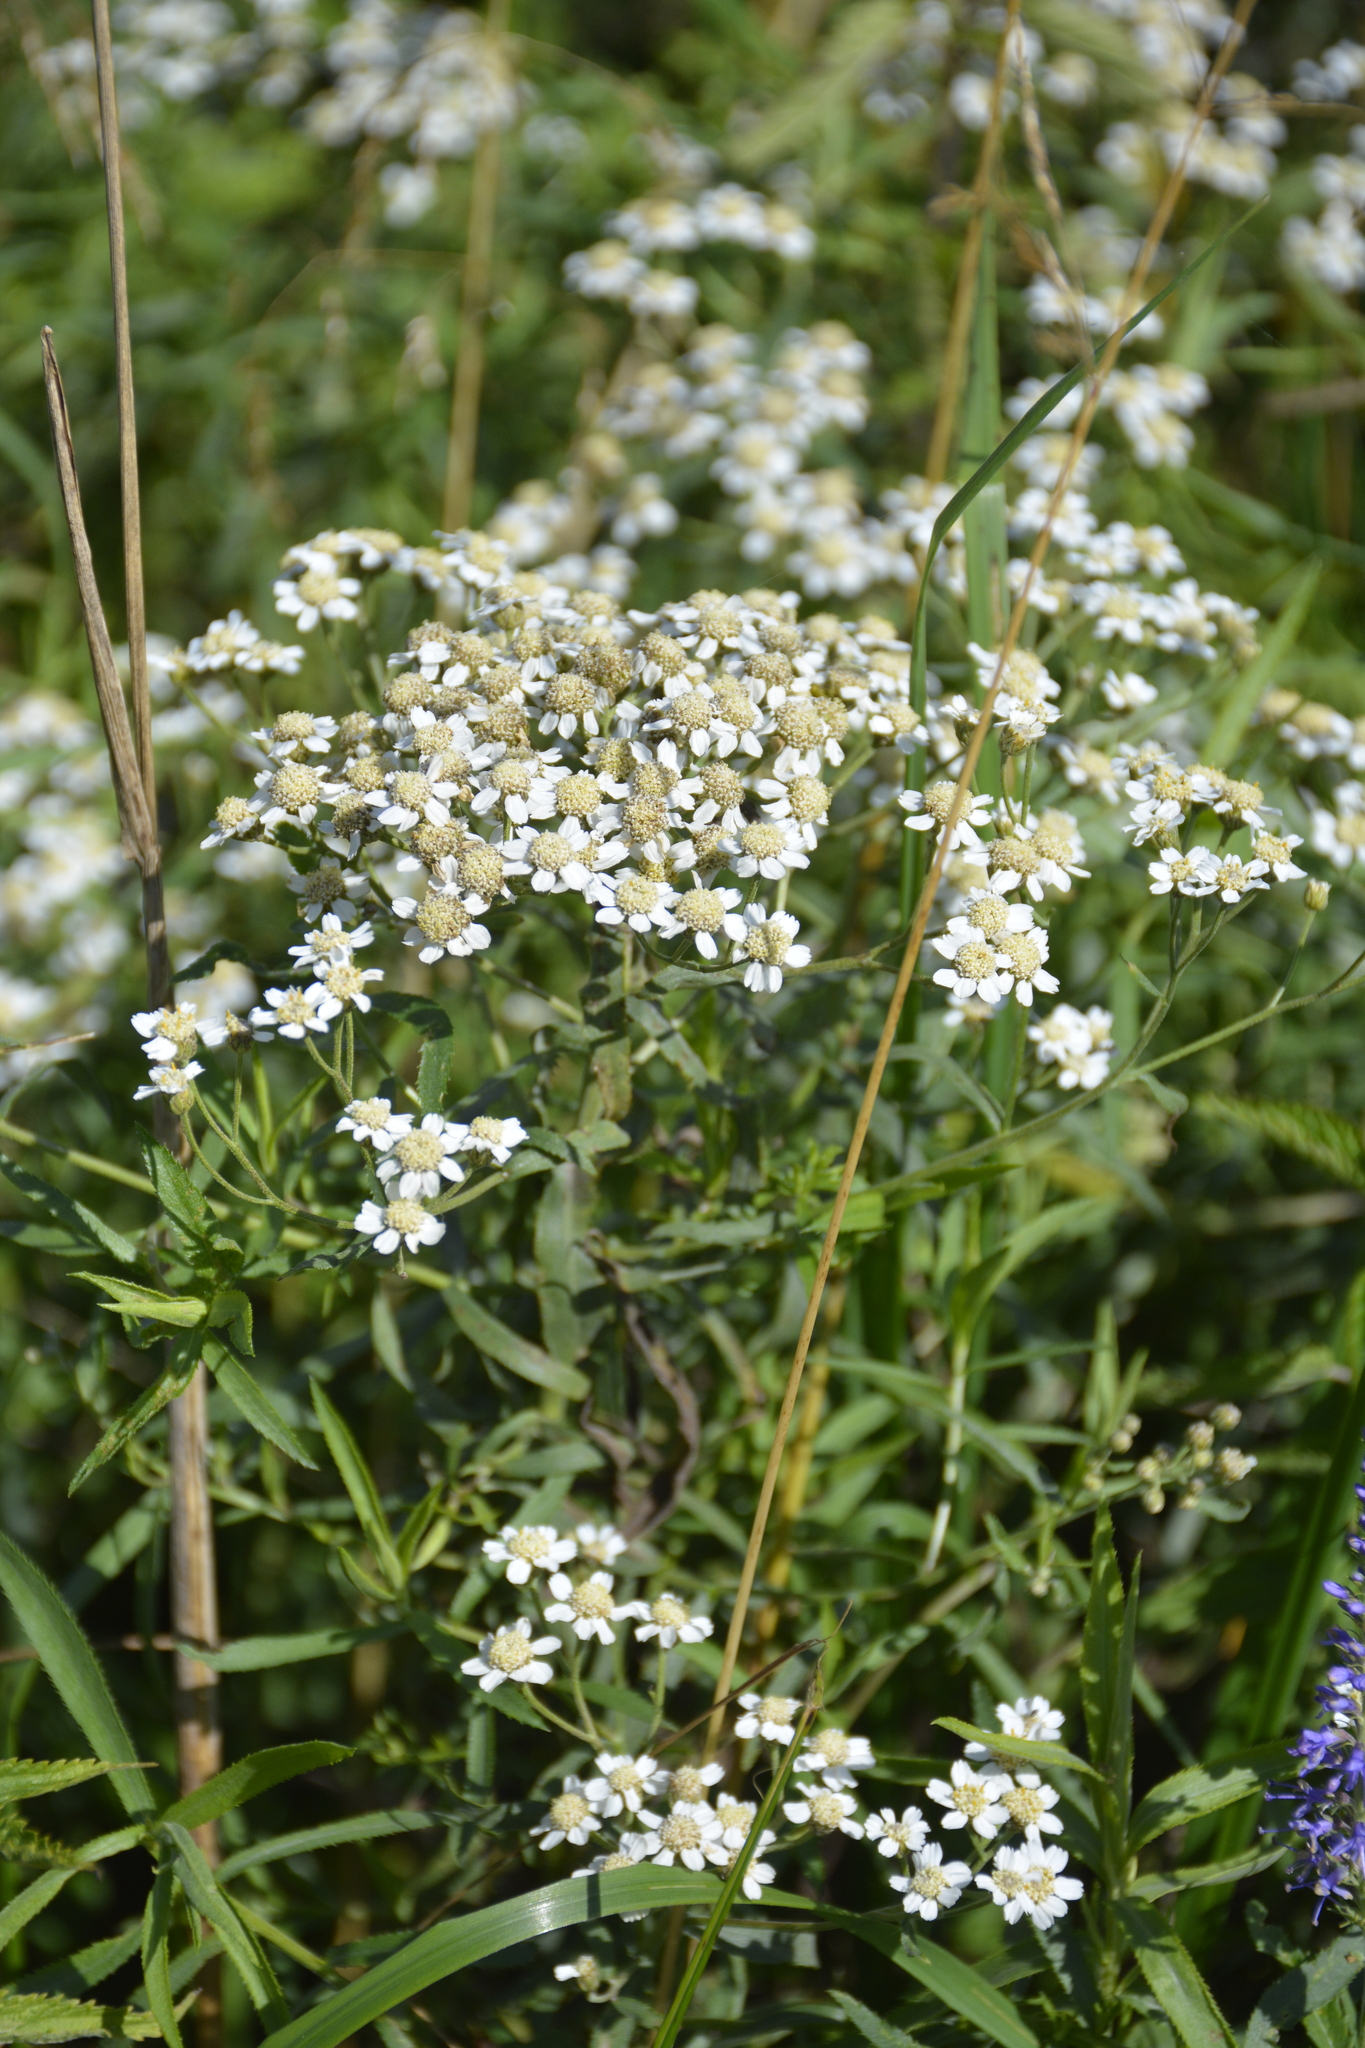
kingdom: Plantae
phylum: Tracheophyta
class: Magnoliopsida
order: Asterales
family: Asteraceae
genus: Achillea
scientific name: Achillea salicifolia
